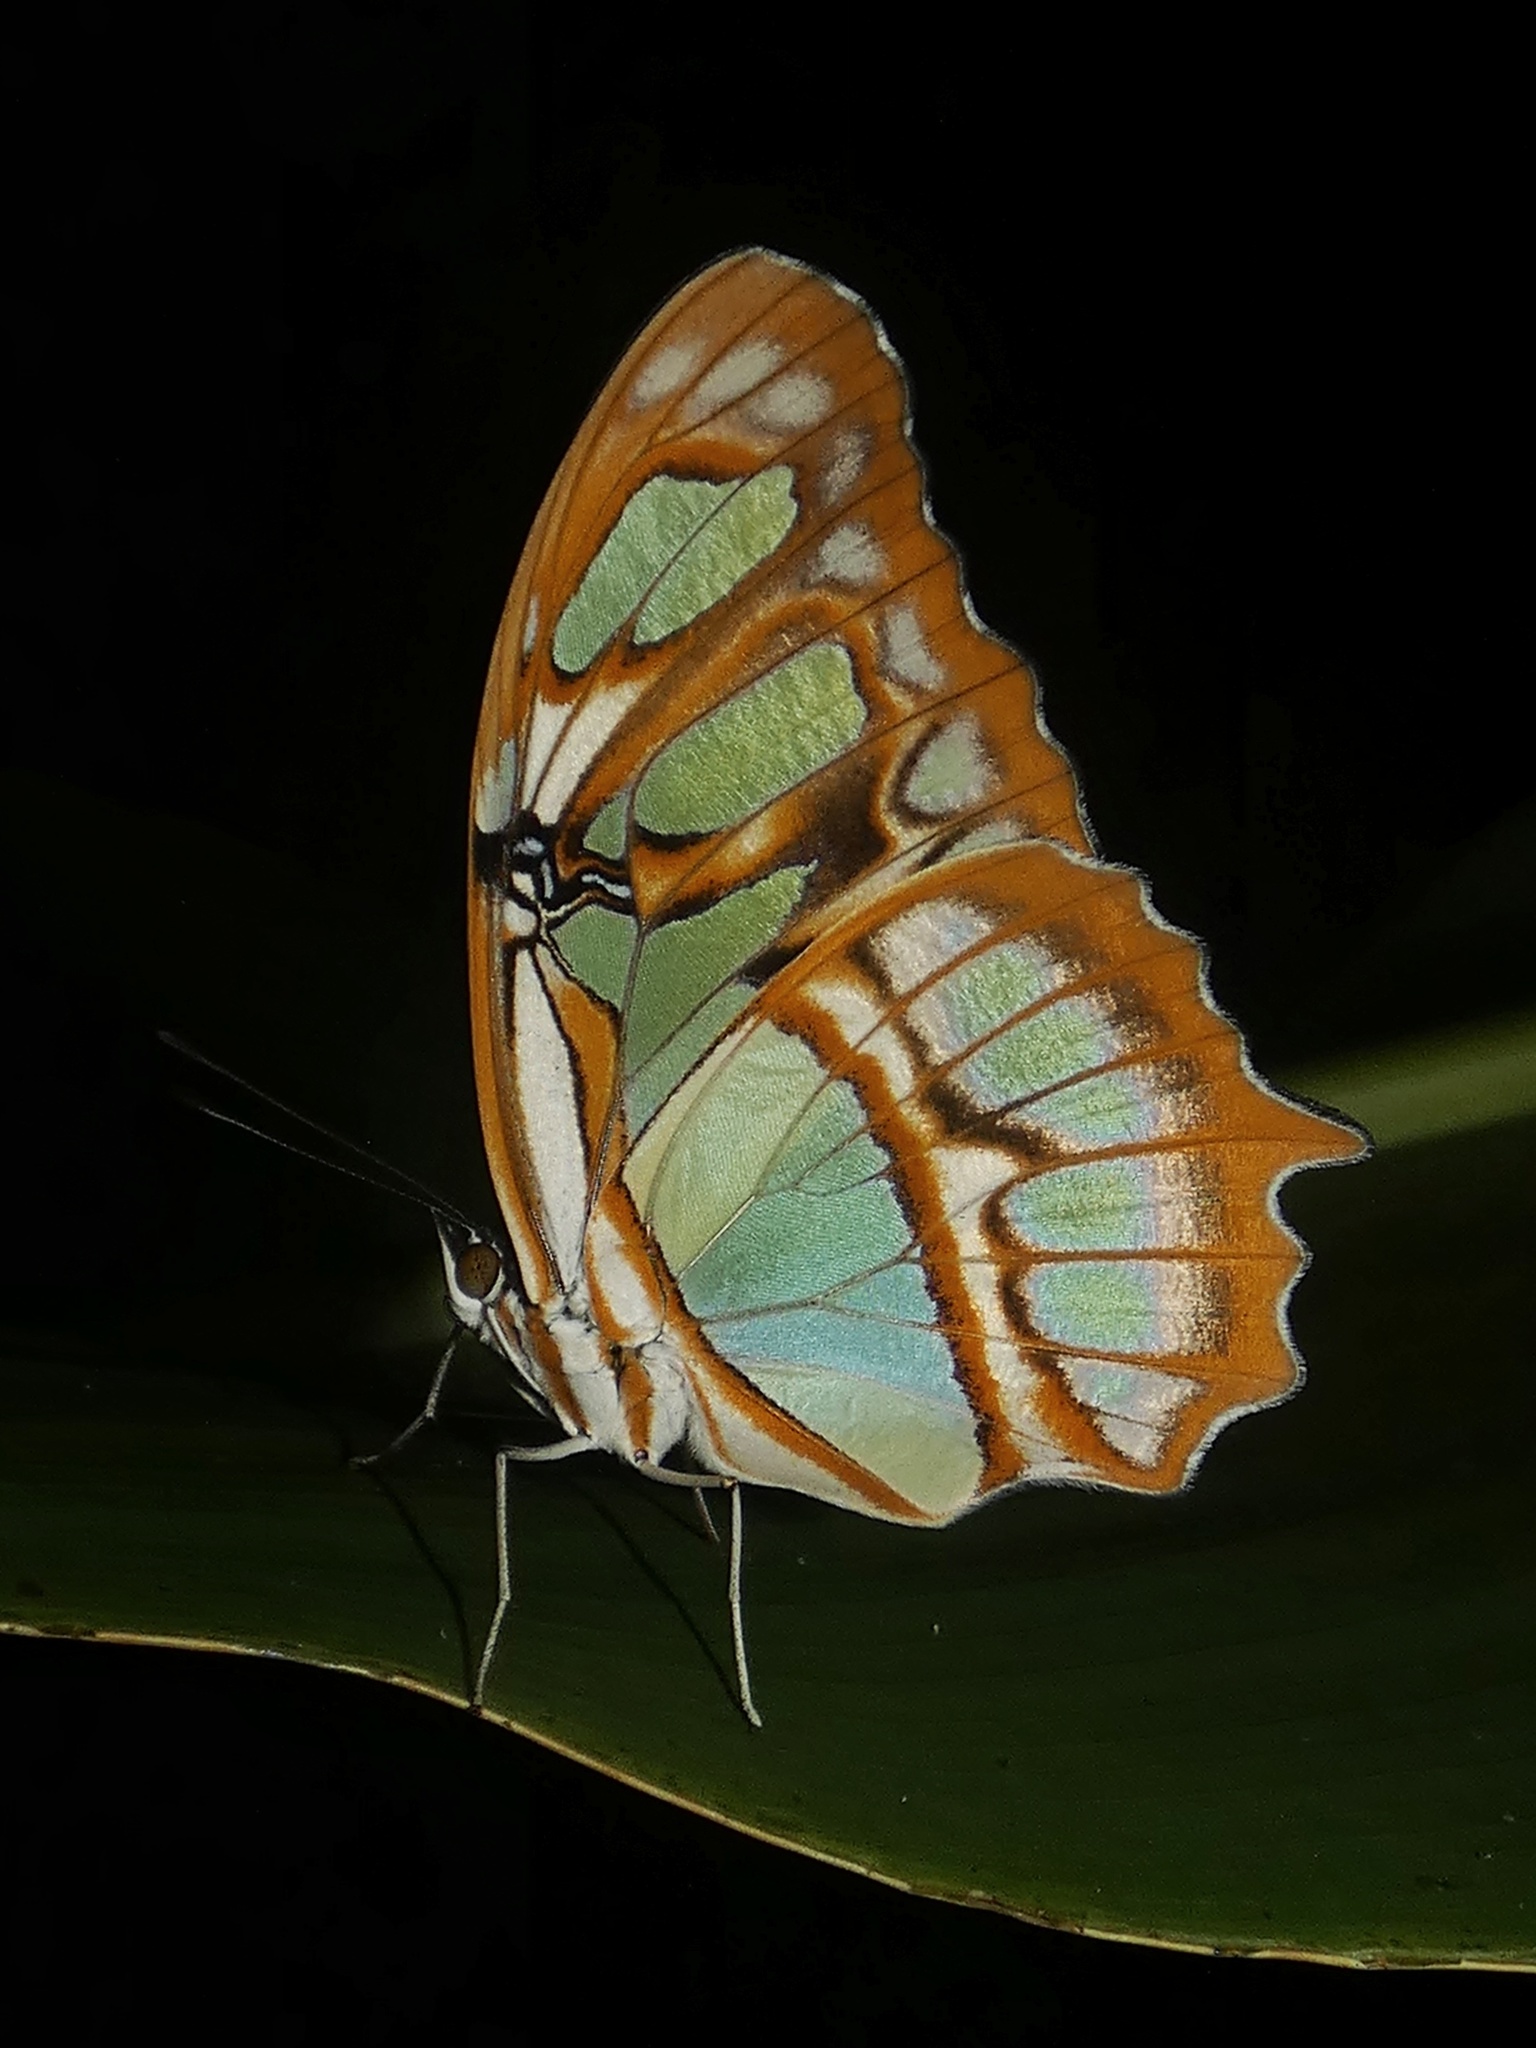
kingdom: Animalia
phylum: Arthropoda
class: Insecta
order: Lepidoptera
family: Nymphalidae
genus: Siproeta
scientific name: Siproeta stelenes
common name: Malachite
